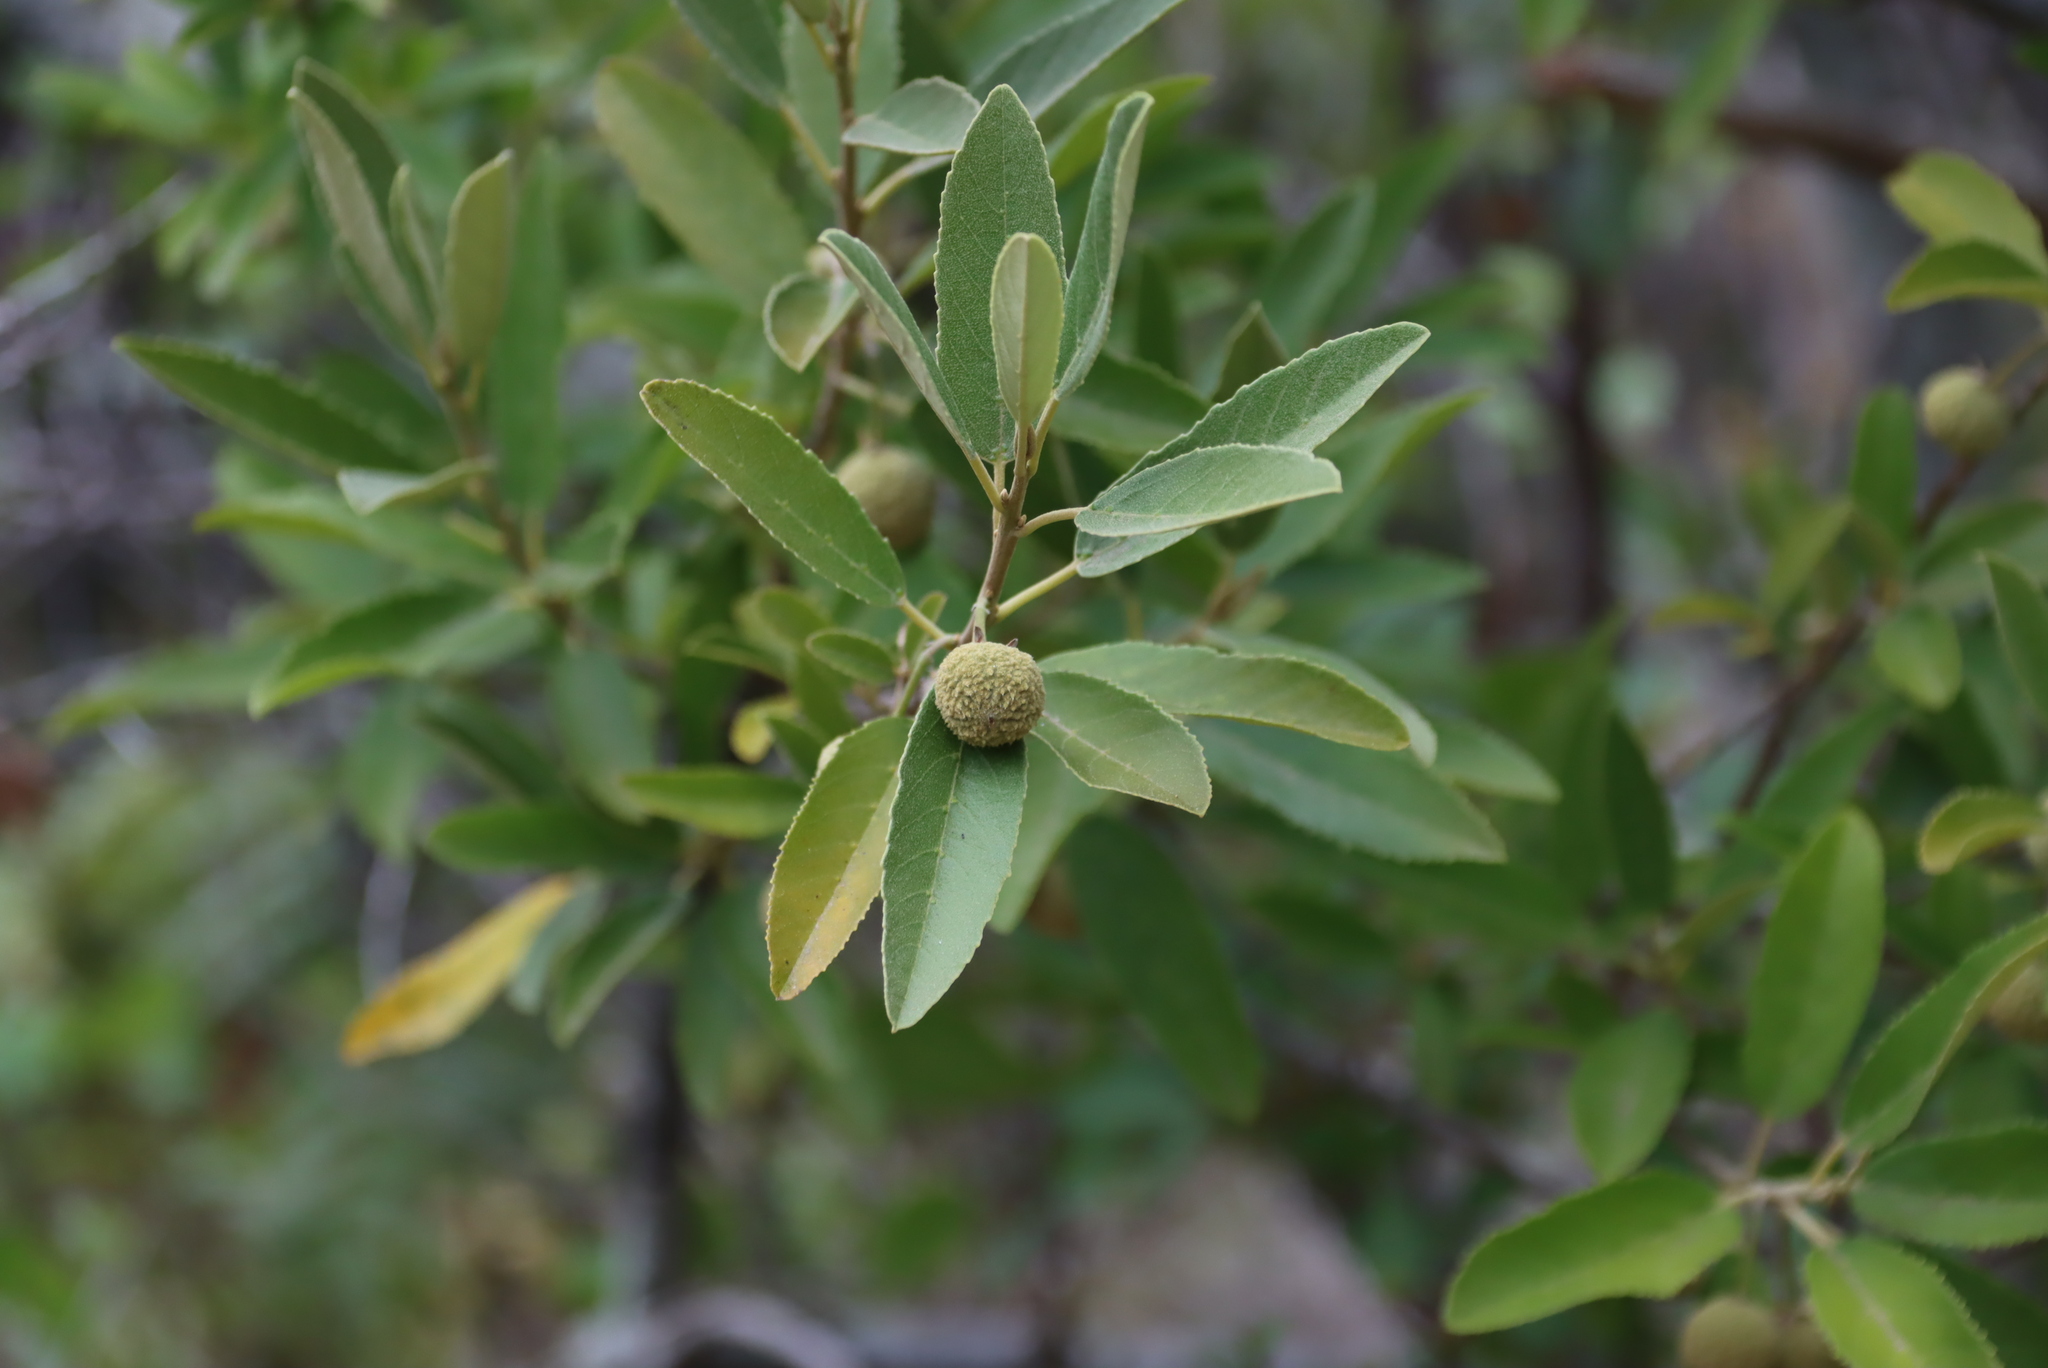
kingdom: Plantae
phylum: Tracheophyta
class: Magnoliopsida
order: Malpighiales
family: Achariaceae
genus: Kiggelaria
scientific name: Kiggelaria africana
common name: Wild peach
